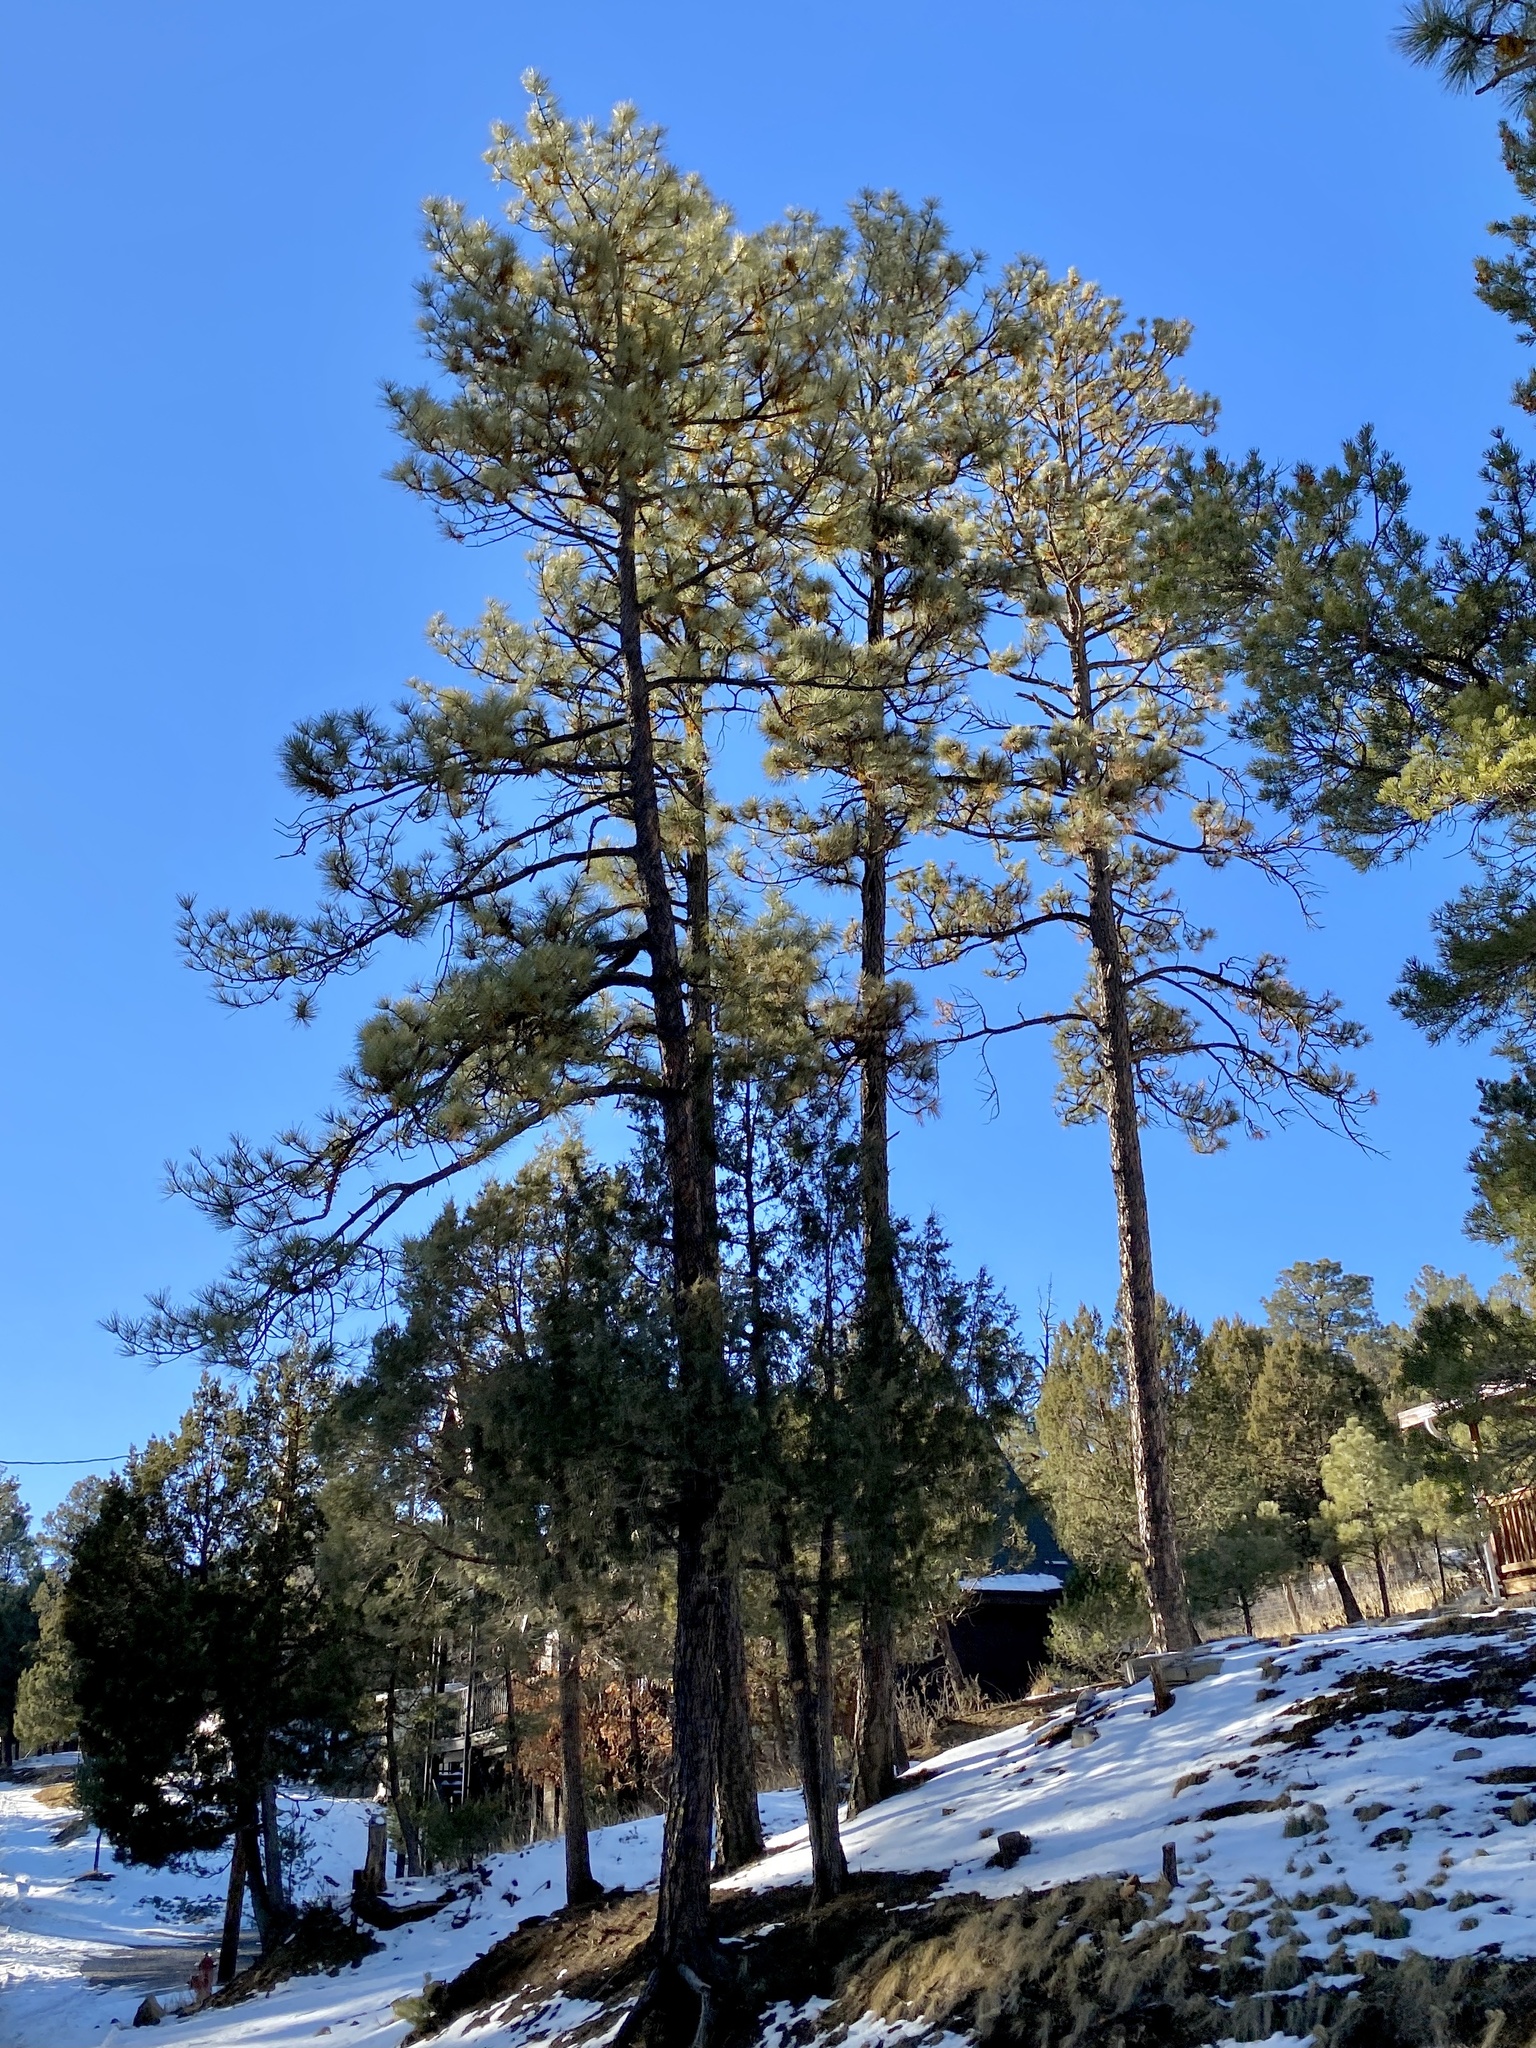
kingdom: Plantae
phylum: Tracheophyta
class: Pinopsida
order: Pinales
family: Pinaceae
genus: Pinus
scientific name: Pinus ponderosa
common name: Western yellow-pine
